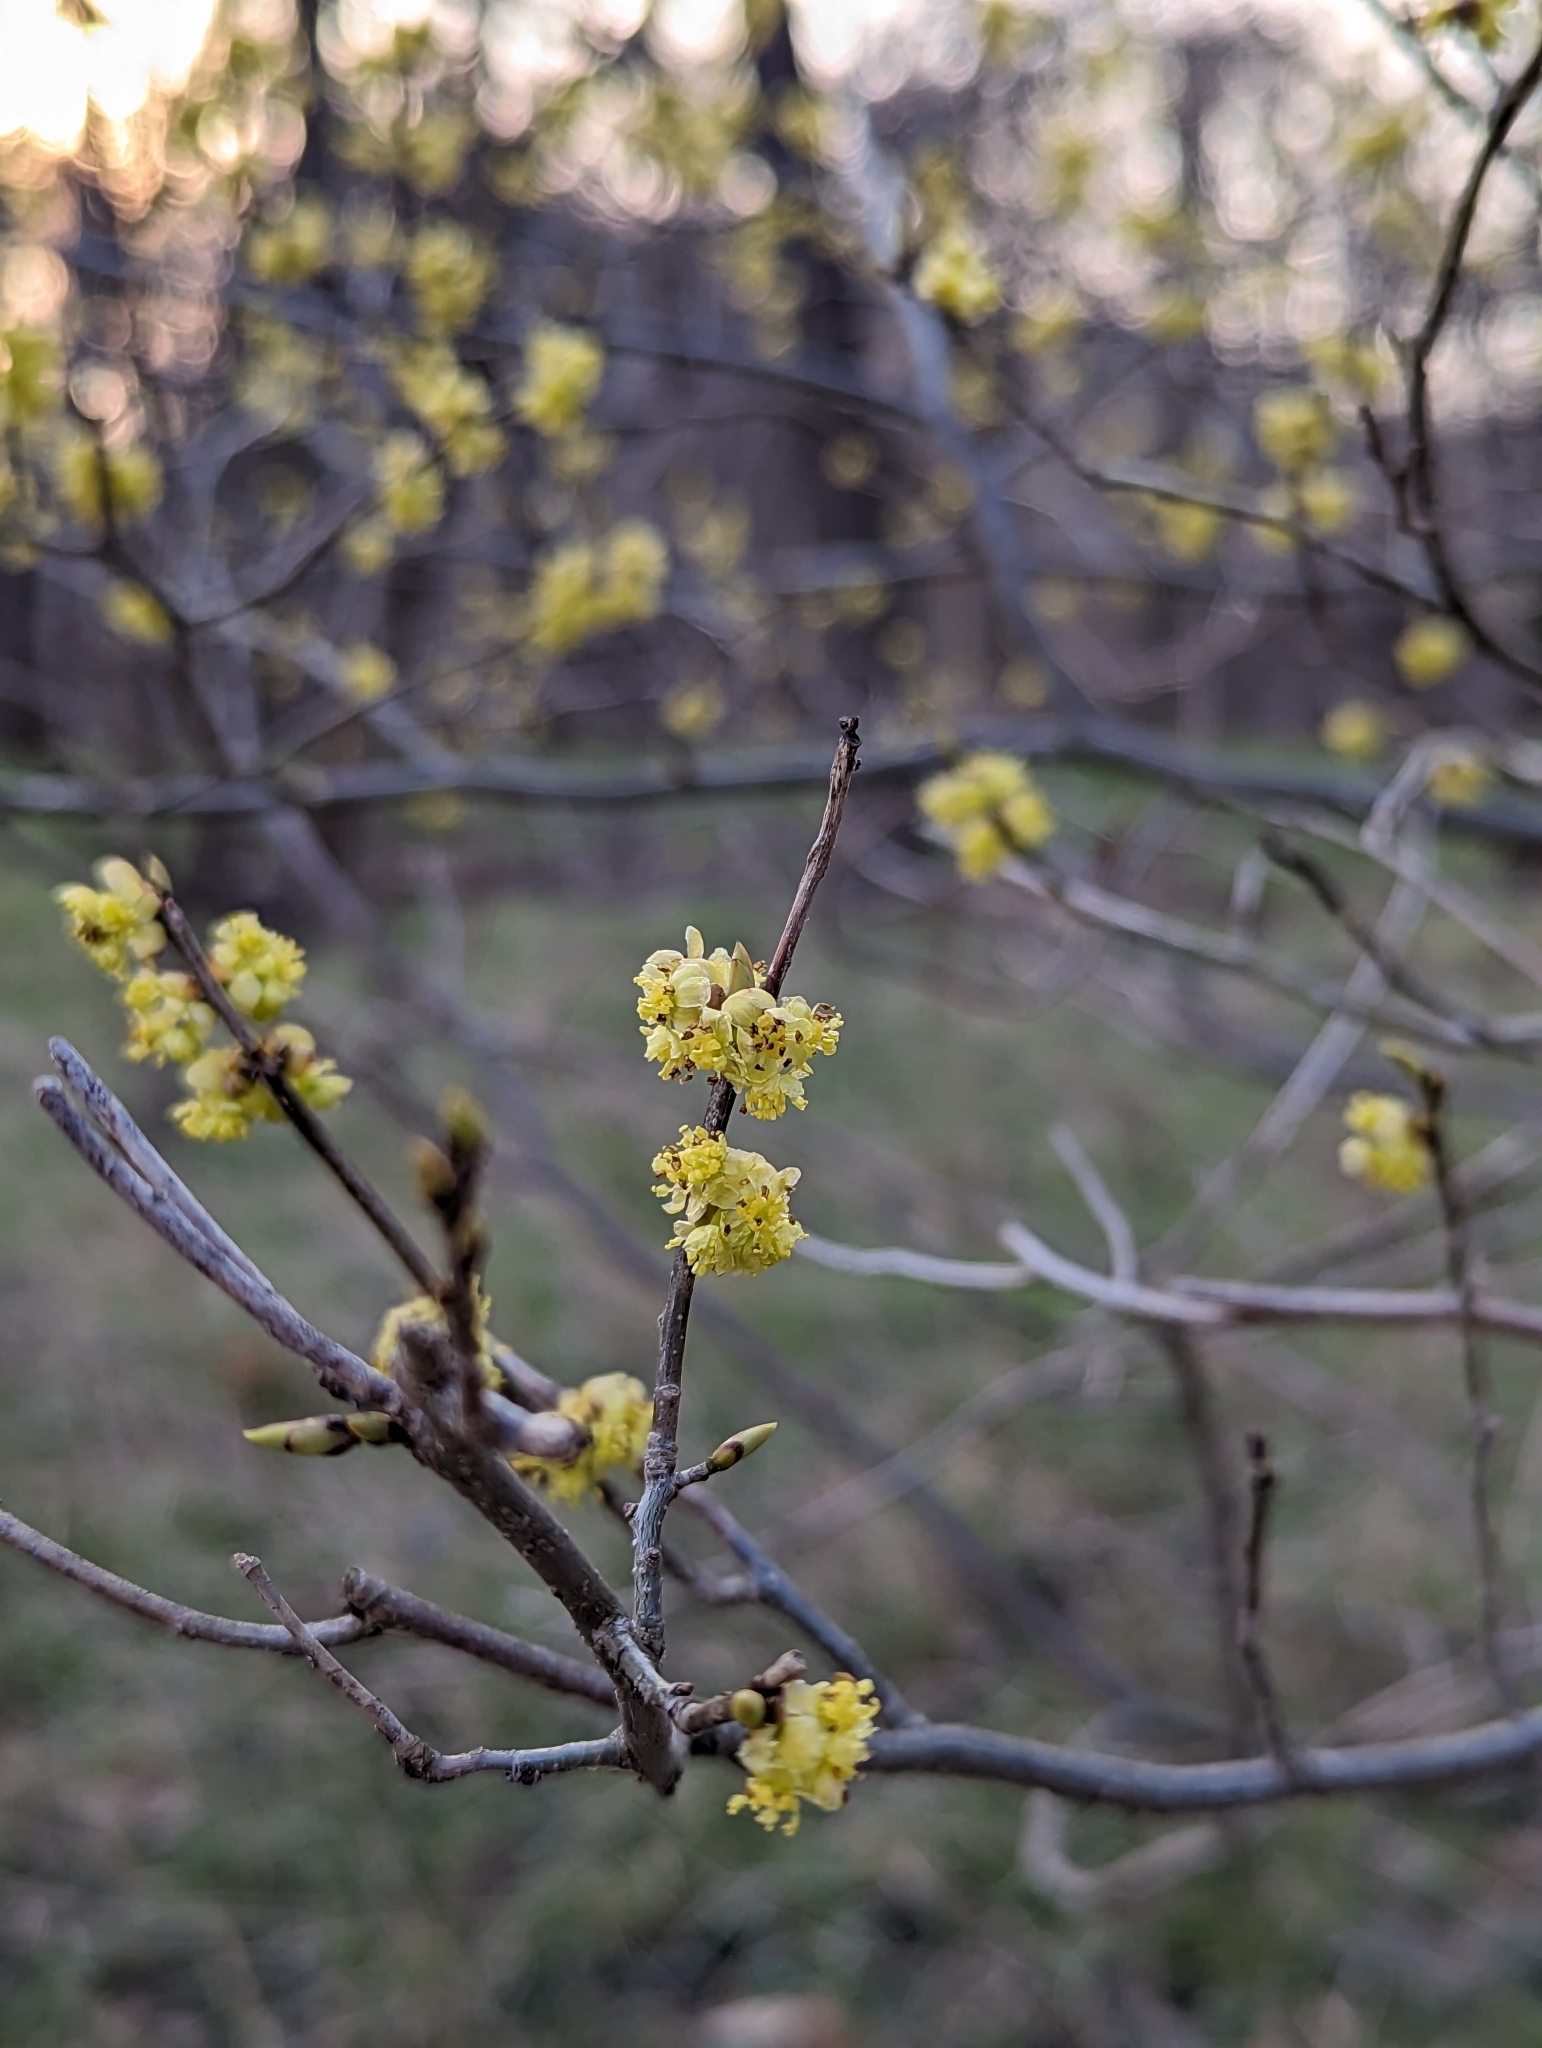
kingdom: Plantae
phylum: Tracheophyta
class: Magnoliopsida
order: Laurales
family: Lauraceae
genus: Lindera
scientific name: Lindera benzoin
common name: Spicebush
